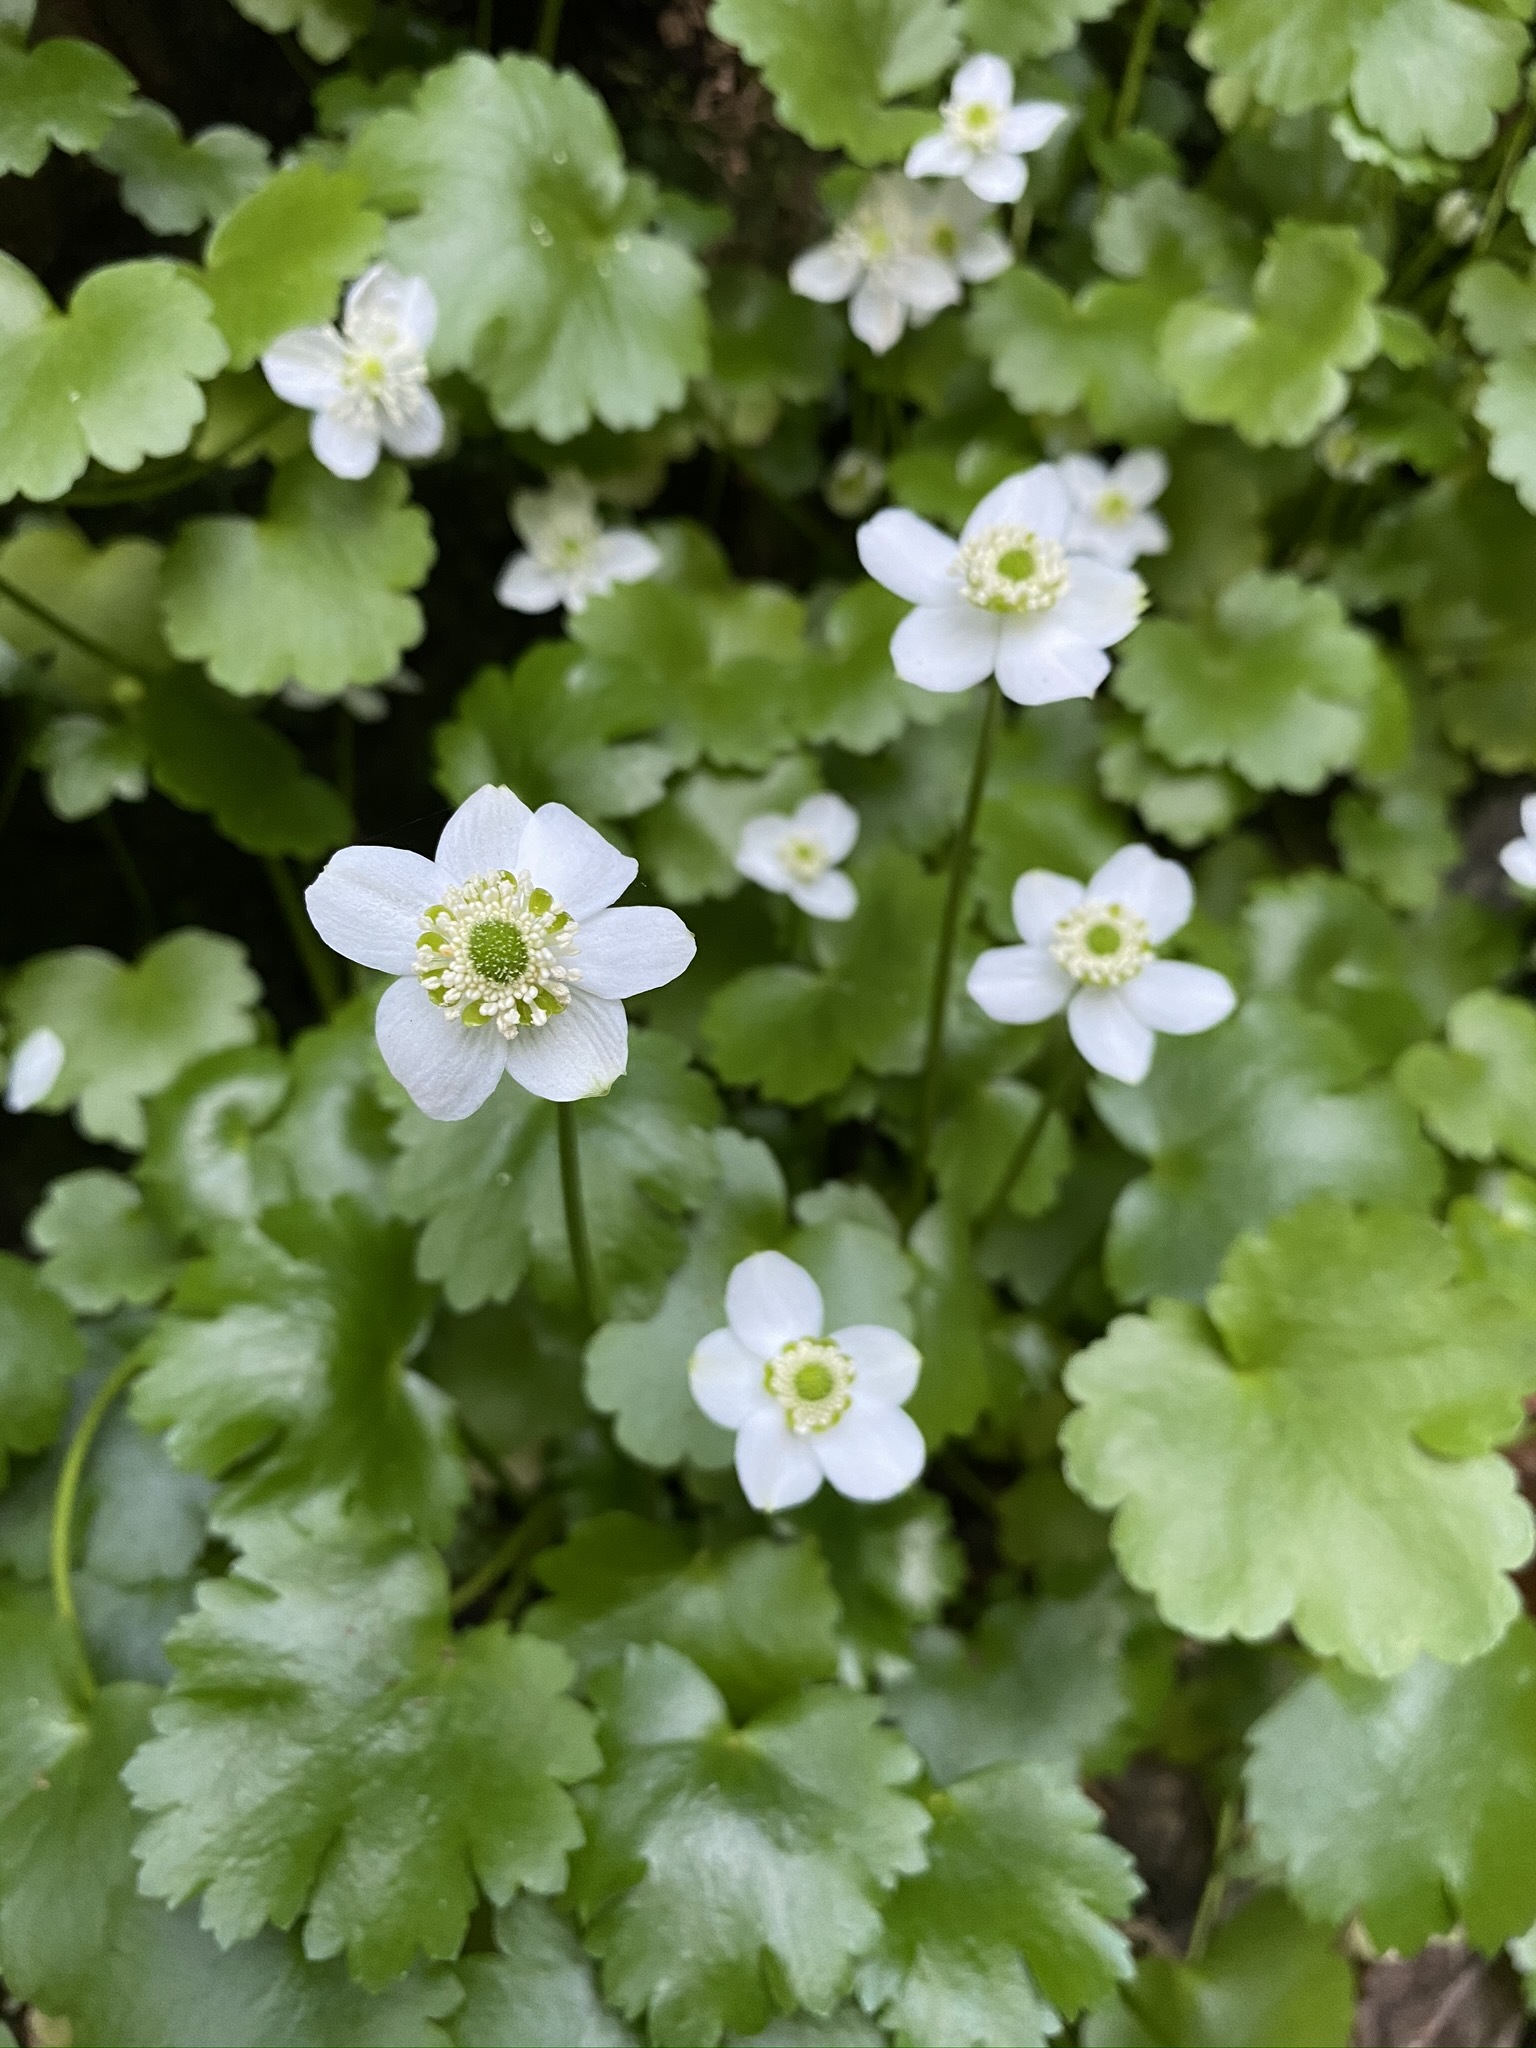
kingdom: Plantae
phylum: Tracheophyta
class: Magnoliopsida
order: Ranunculales
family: Ranunculaceae
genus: Kumlienia
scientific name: Kumlienia hystricula
